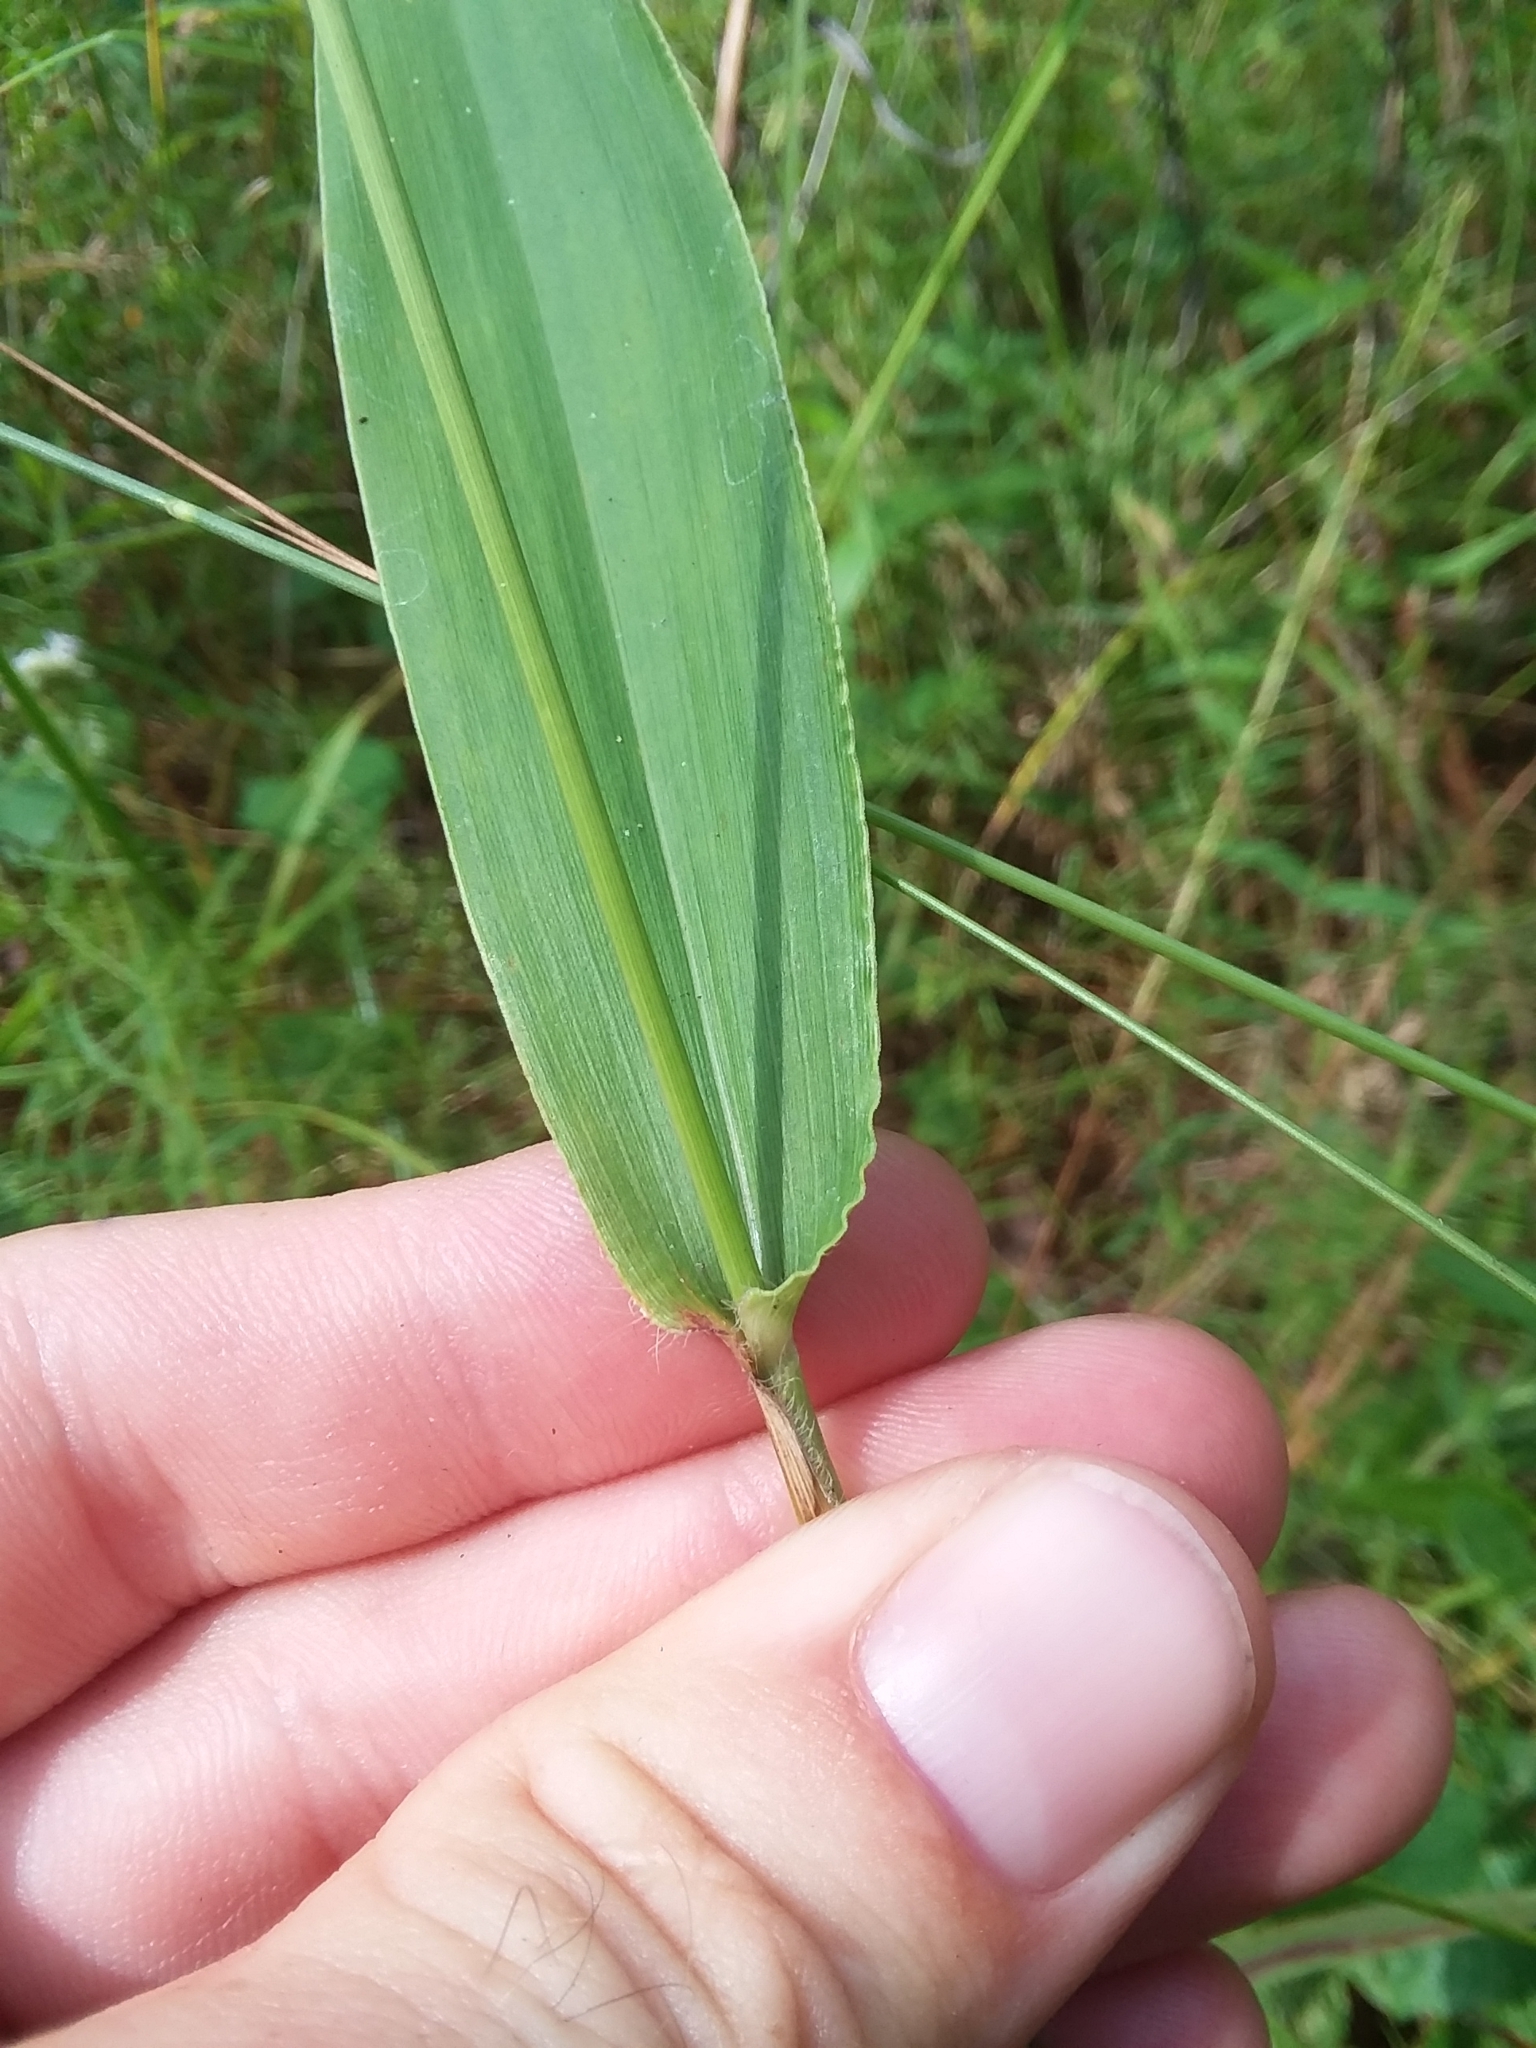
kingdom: Plantae
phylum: Tracheophyta
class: Liliopsida
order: Poales
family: Poaceae
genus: Dichanthelium
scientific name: Dichanthelium polyanthes
